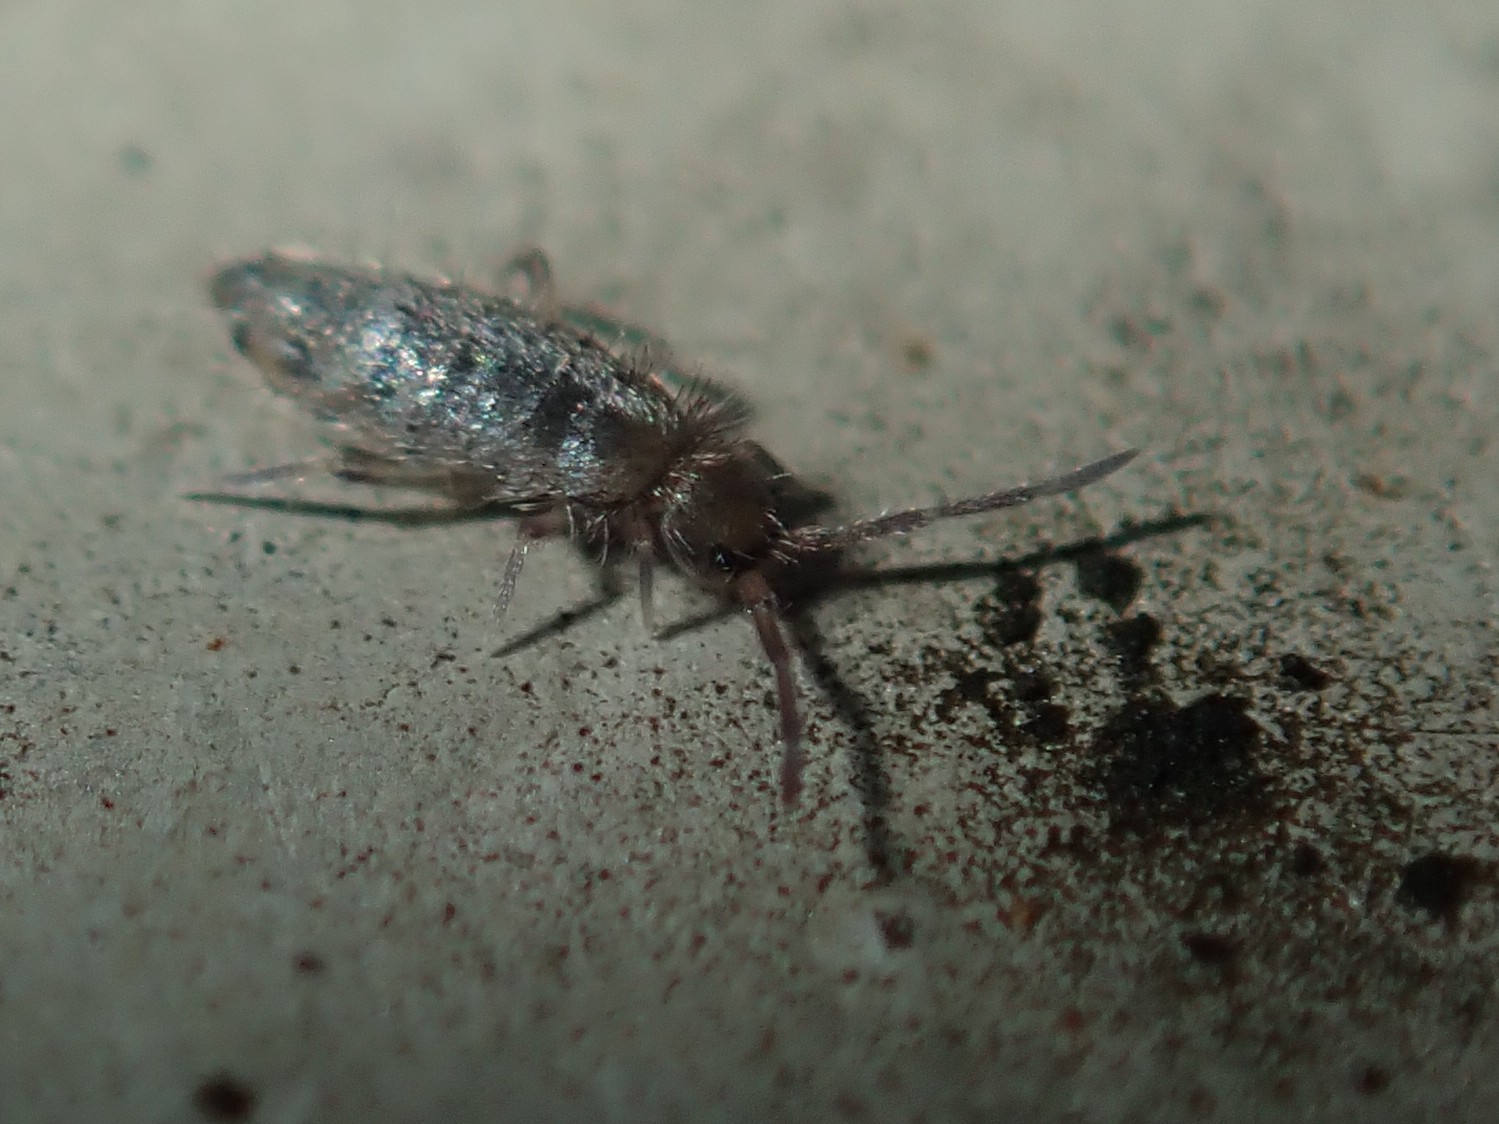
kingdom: Animalia
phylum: Arthropoda
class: Collembola
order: Entomobryomorpha
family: Entomobryidae
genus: Willowsia
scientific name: Willowsia buski
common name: Damp grain springtail
